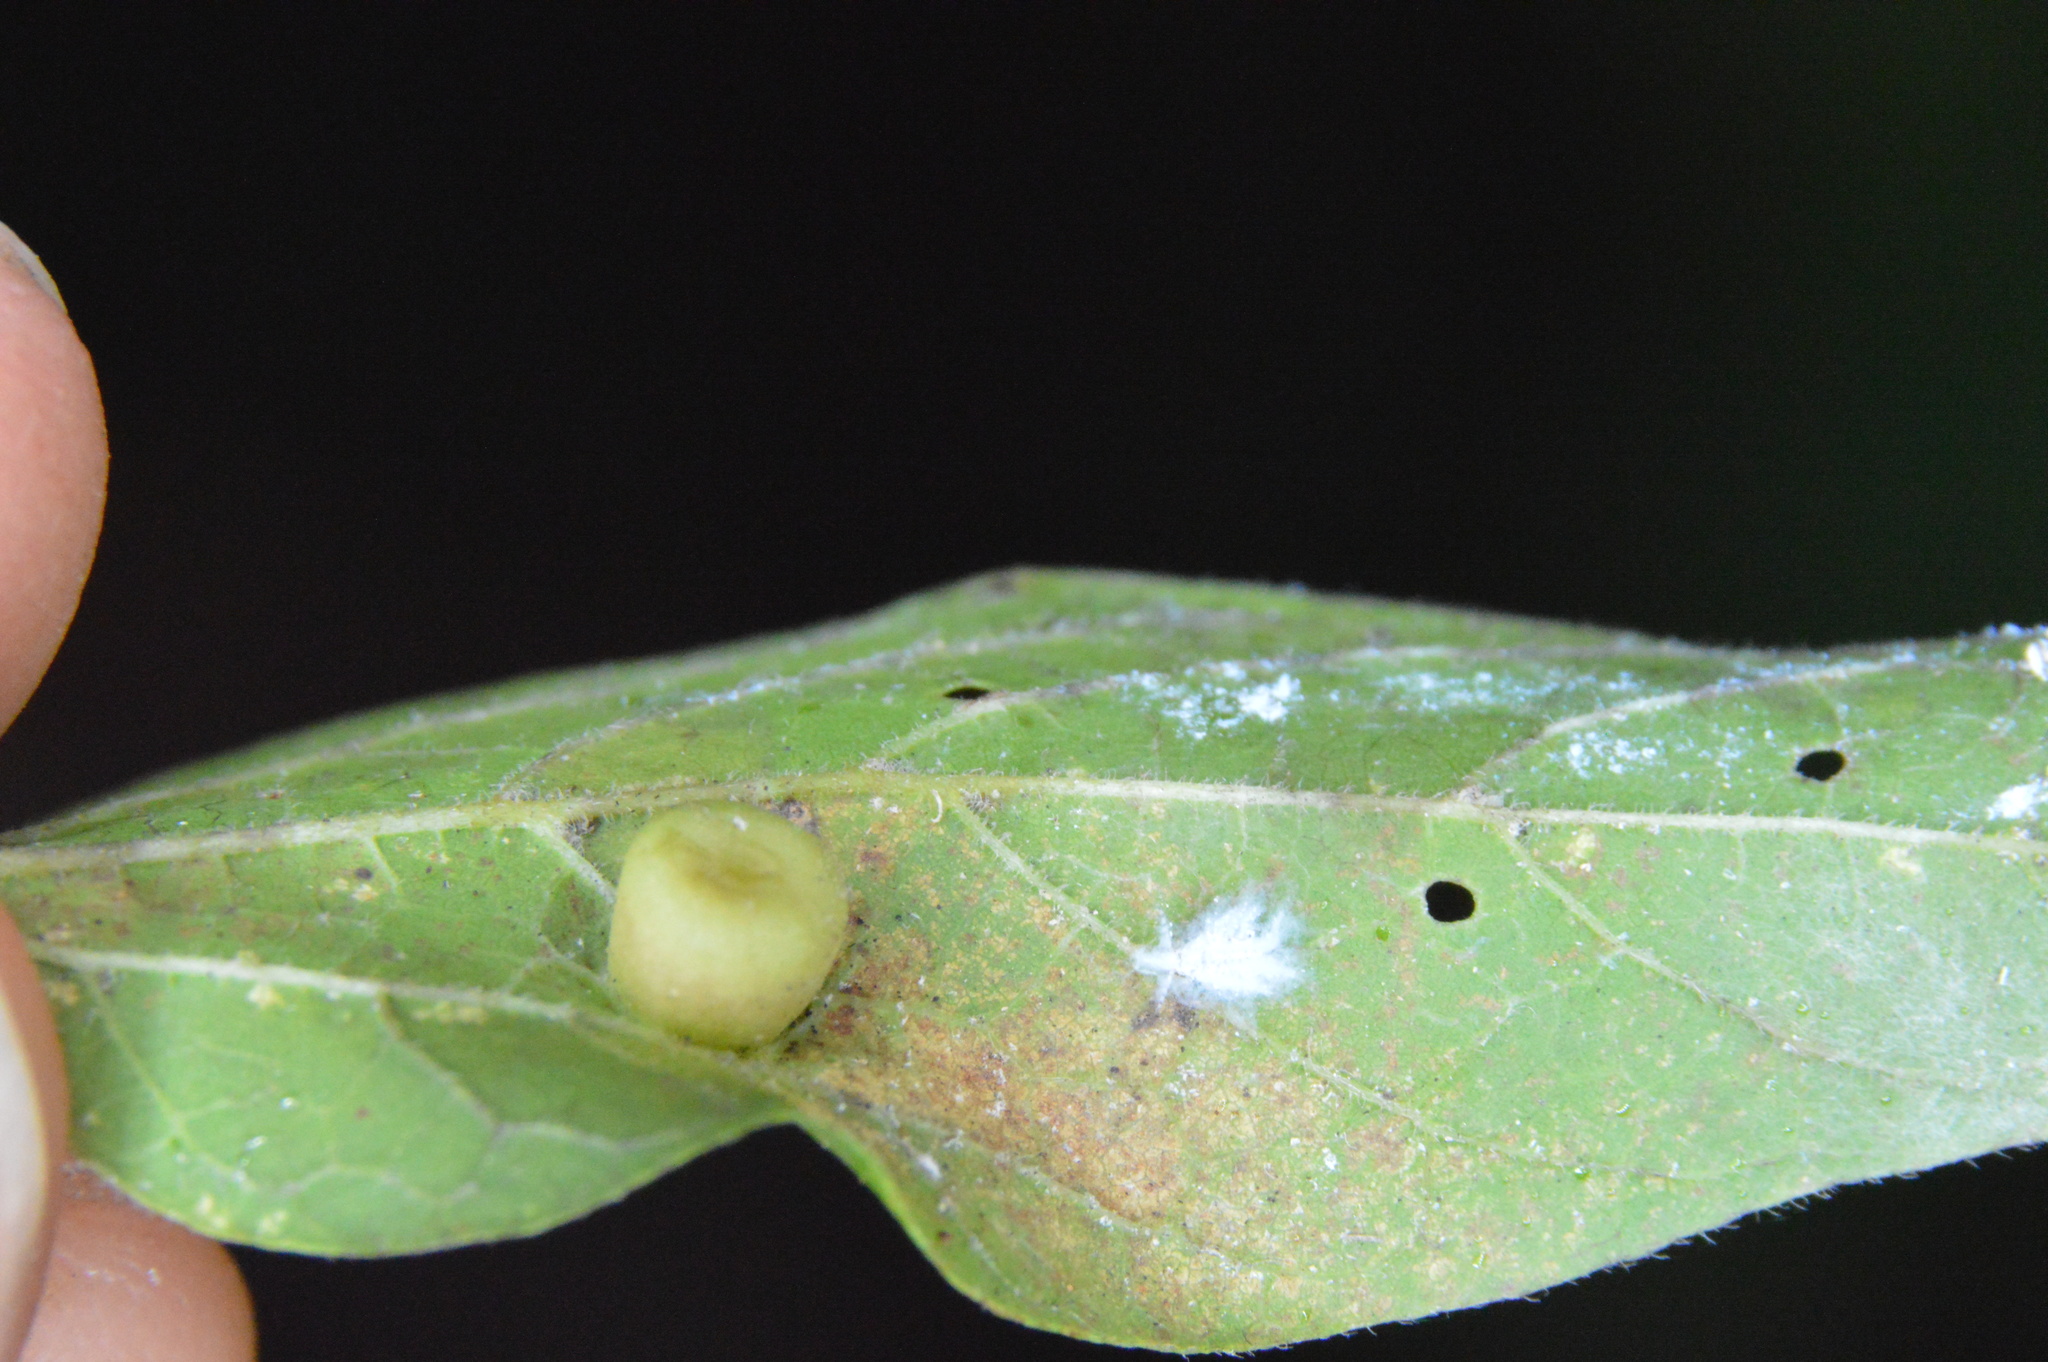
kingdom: Animalia
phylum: Arthropoda
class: Insecta
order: Hemiptera
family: Aphalaridae
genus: Pachypsylla
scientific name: Pachypsylla celtidismamma
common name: Hackberry nipplegall psyllid
